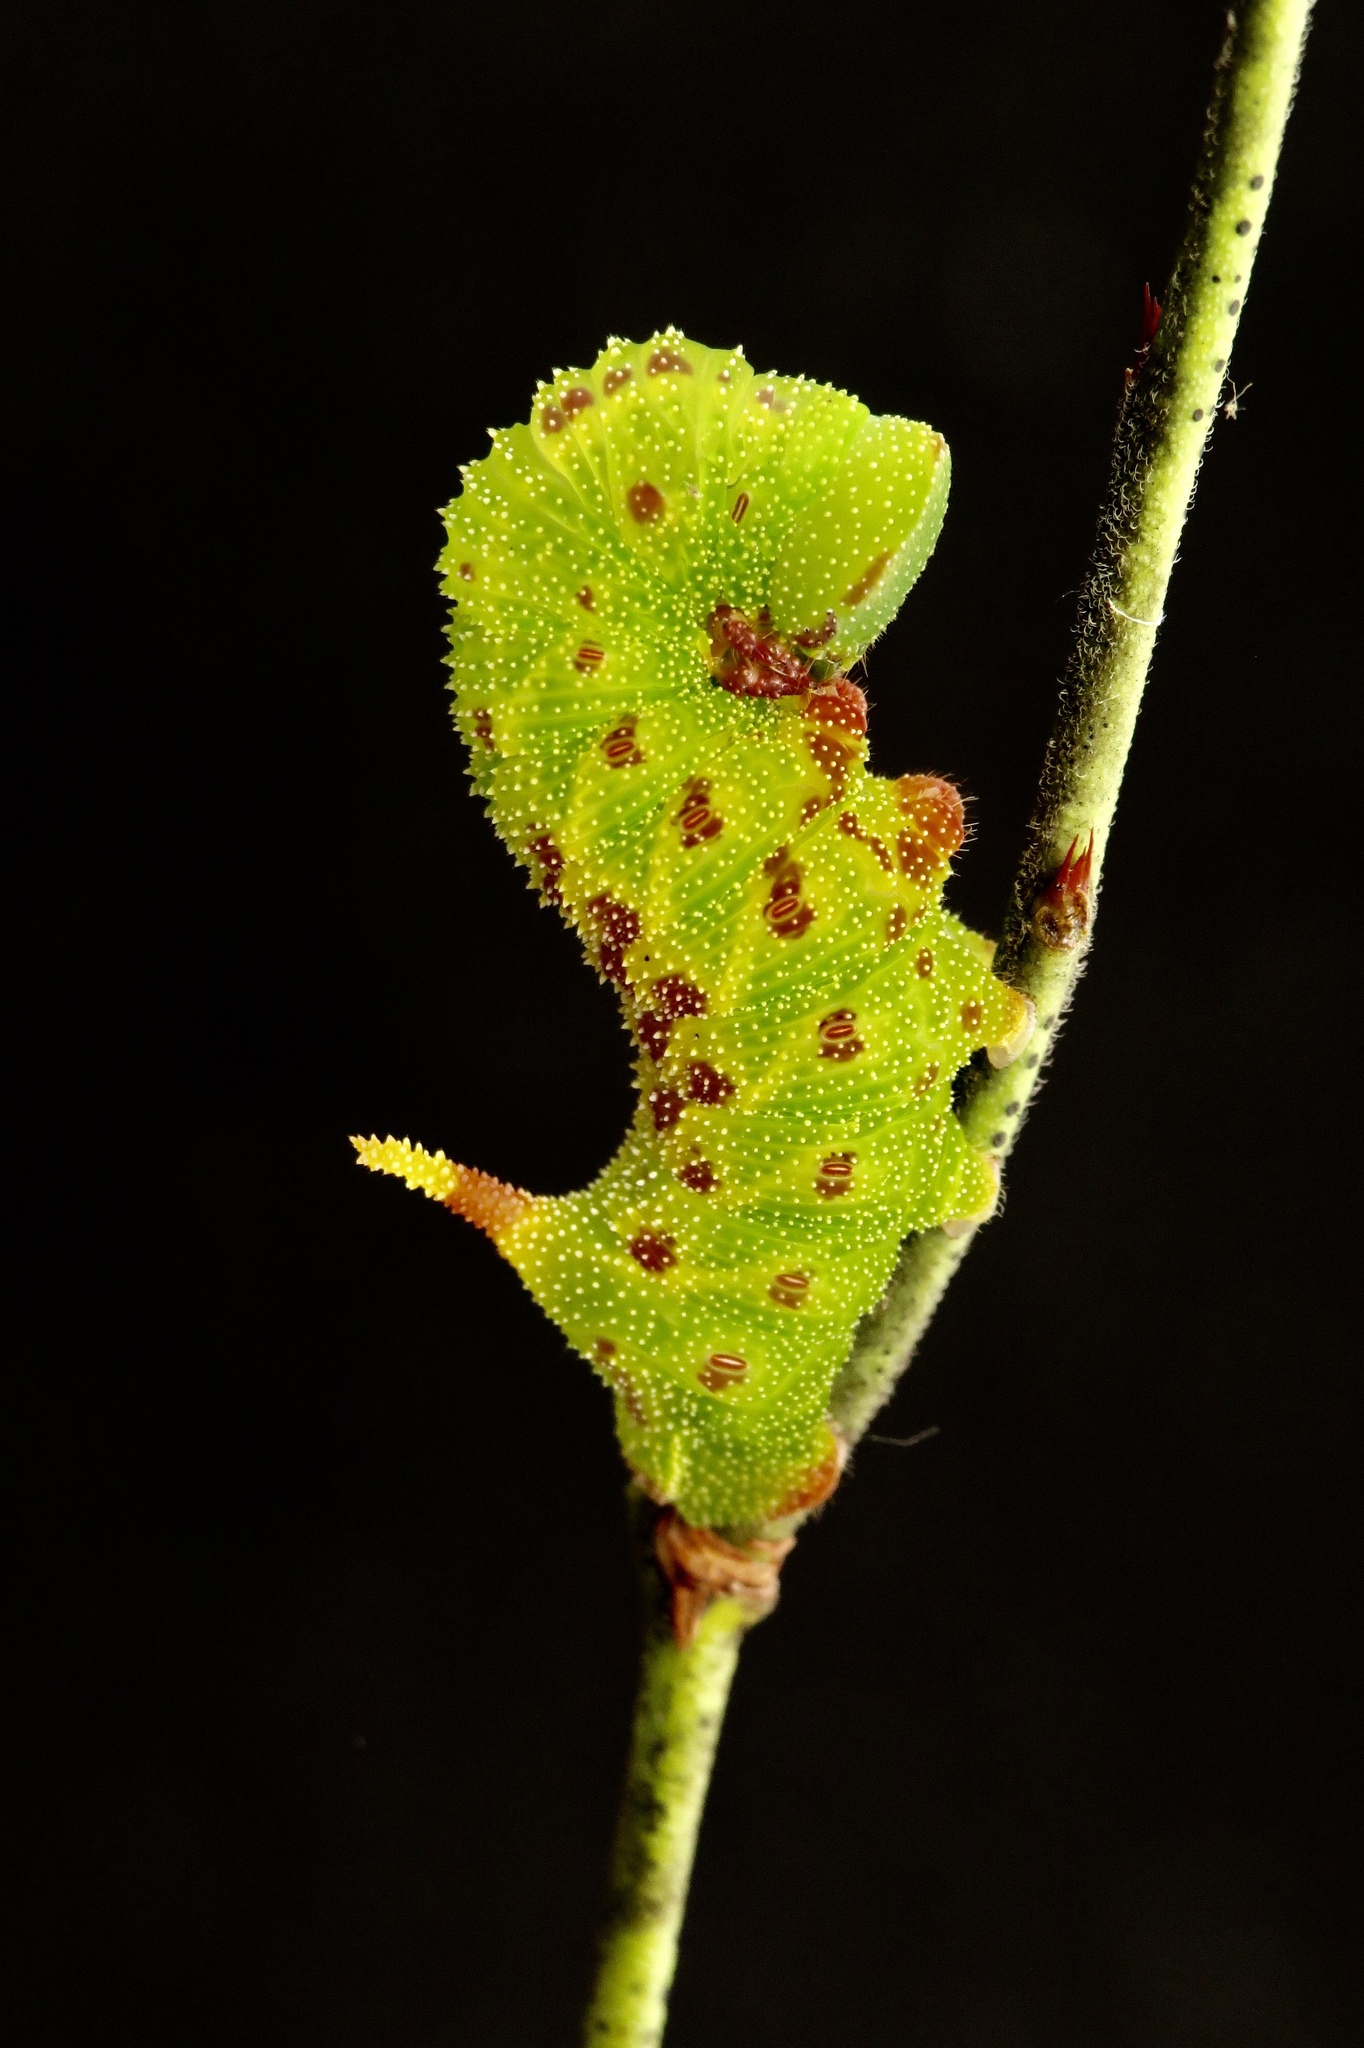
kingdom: Animalia
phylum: Arthropoda
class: Insecta
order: Lepidoptera
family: Sphingidae
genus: Paonias
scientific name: Paonias astylus
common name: Huckleberry sphinx
